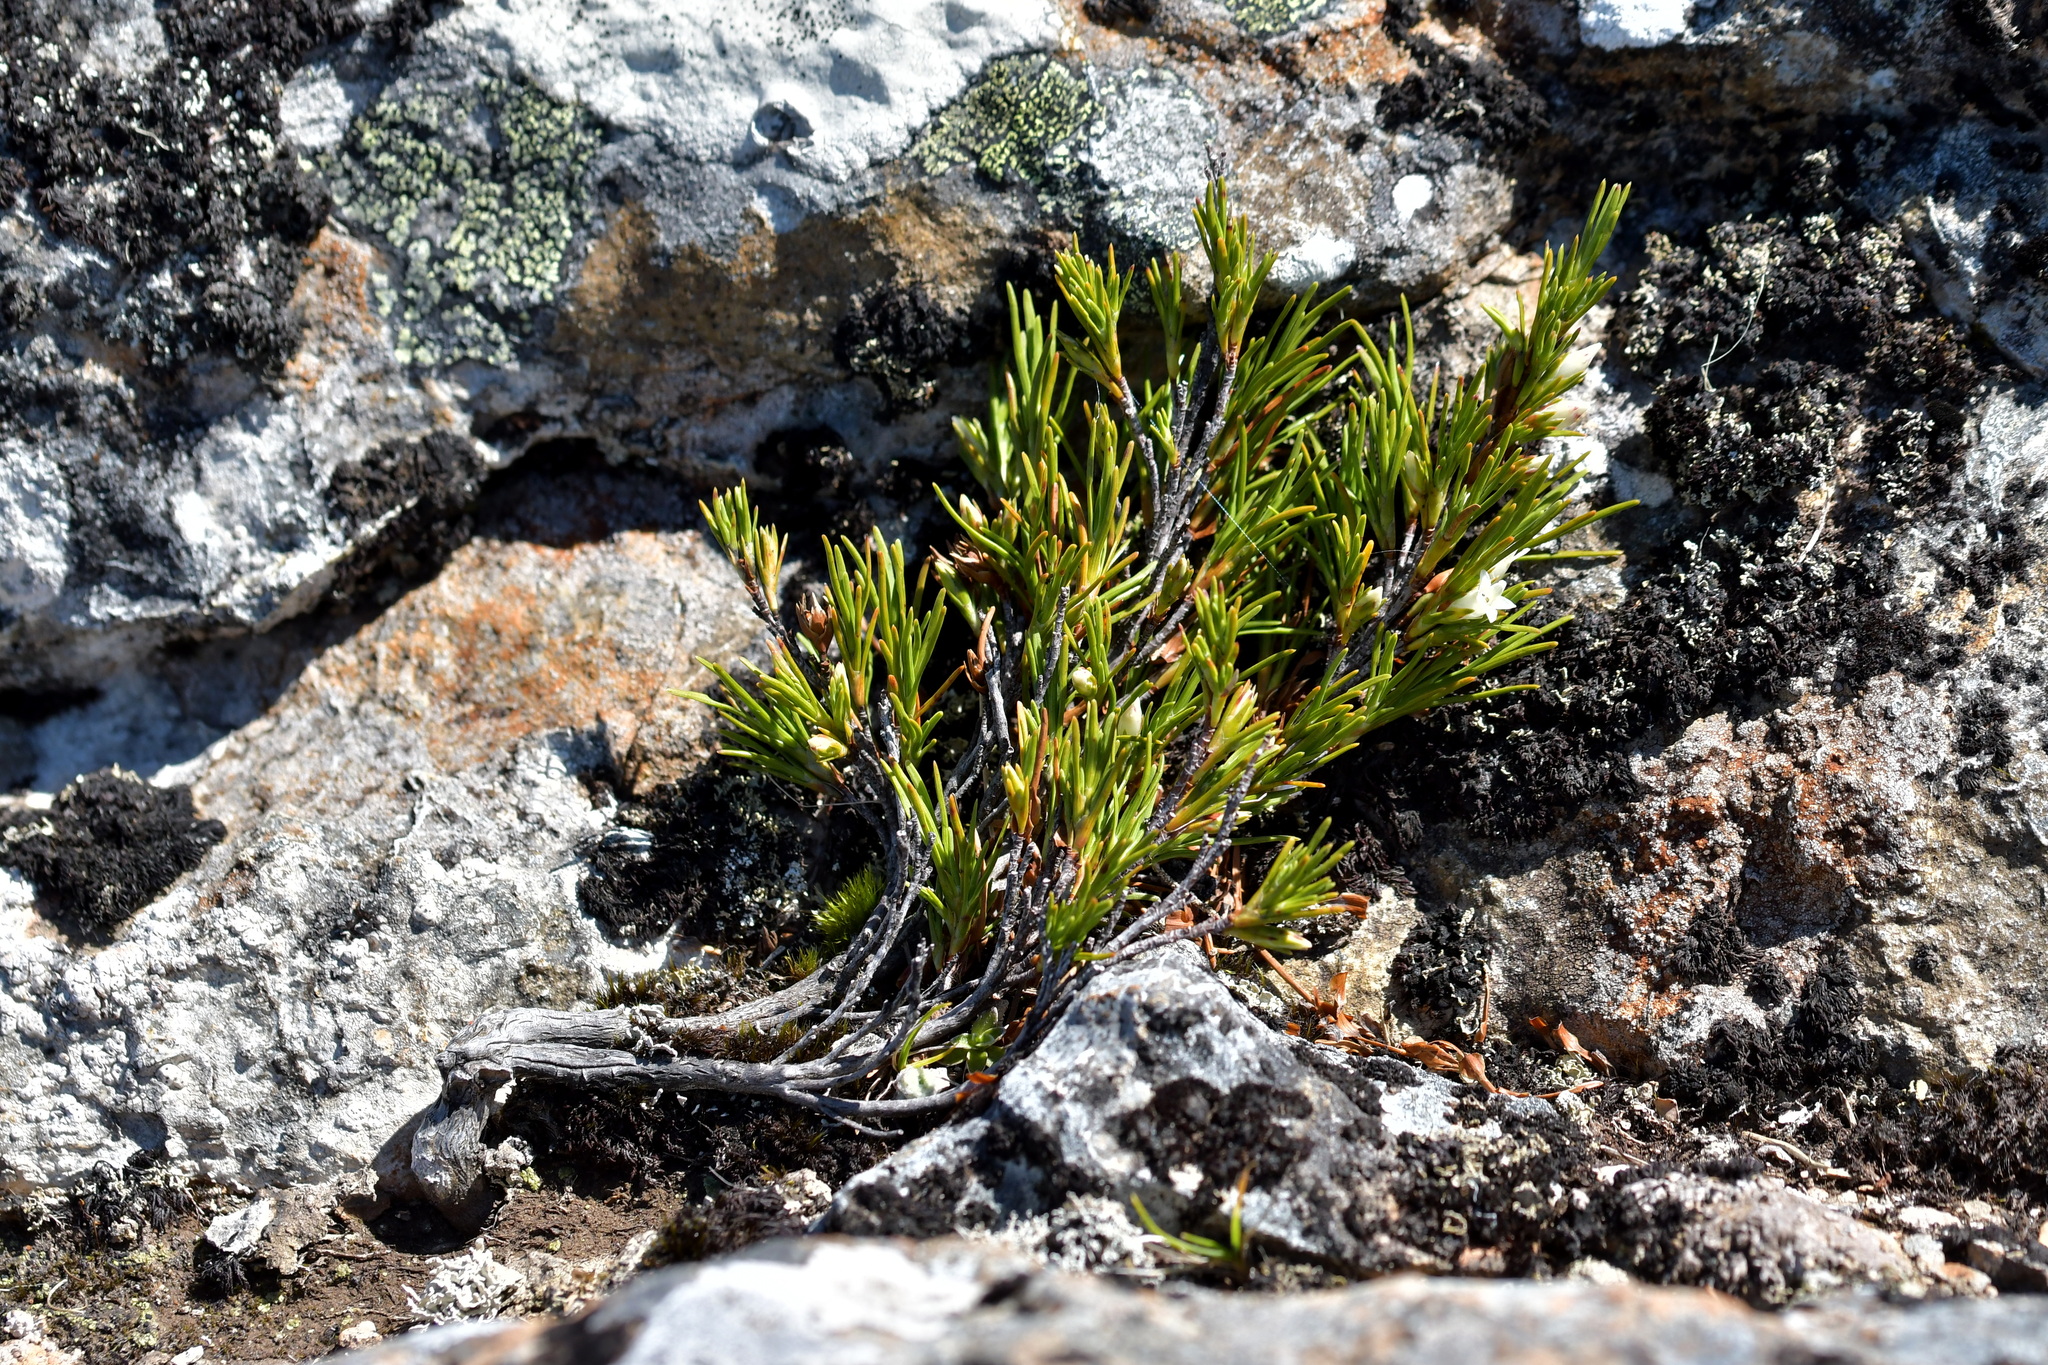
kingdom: Plantae
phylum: Tracheophyta
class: Magnoliopsida
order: Ericales
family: Ericaceae
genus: Dracophyllum
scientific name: Dracophyllum rosmarinifolium
